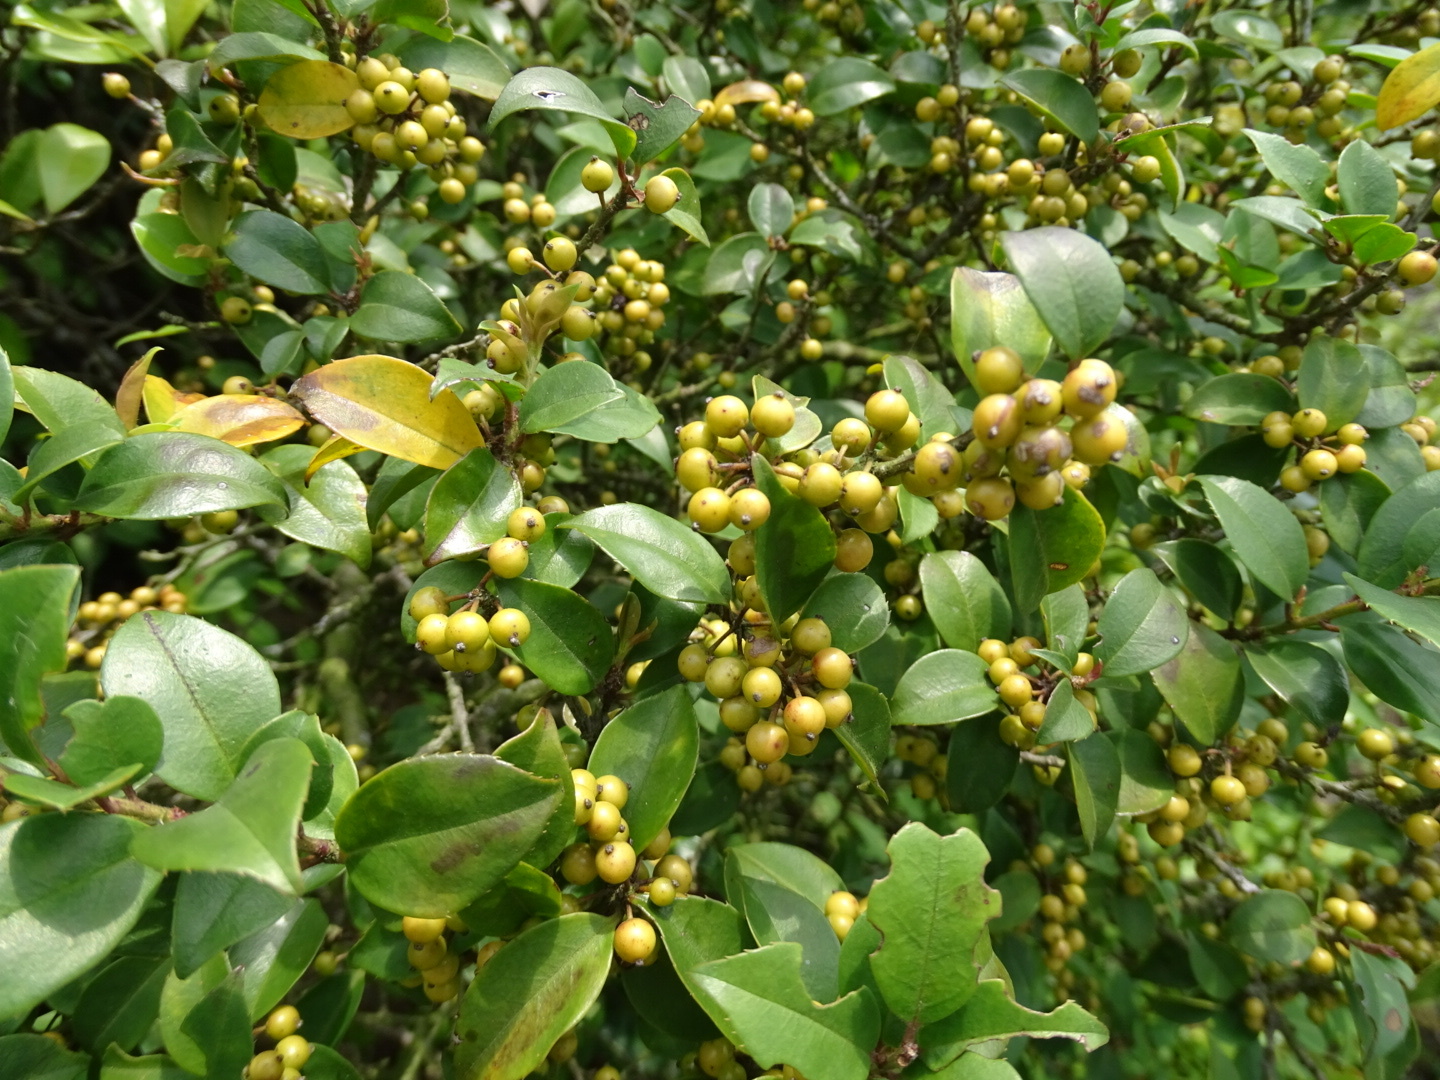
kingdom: Plantae
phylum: Tracheophyta
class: Magnoliopsida
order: Aquifoliales
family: Aquifoliaceae
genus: Ilex
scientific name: Ilex rotunda
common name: Kurogane holly
